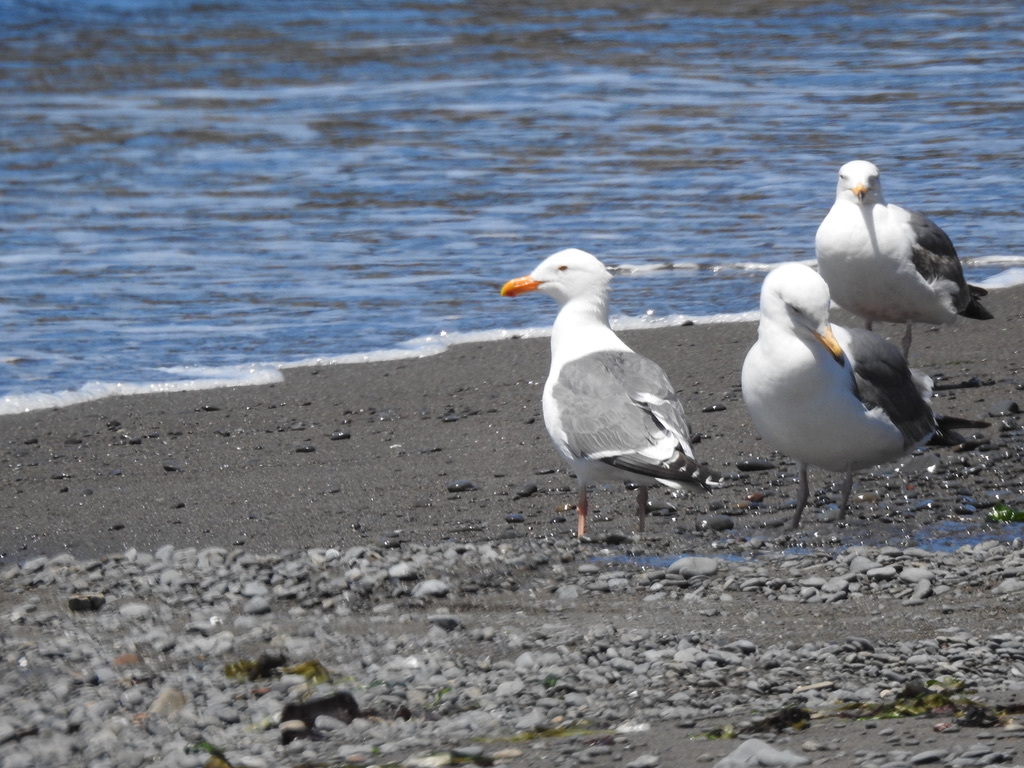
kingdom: Animalia
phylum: Chordata
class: Aves
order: Charadriiformes
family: Laridae
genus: Larus
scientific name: Larus occidentalis
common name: Western gull
